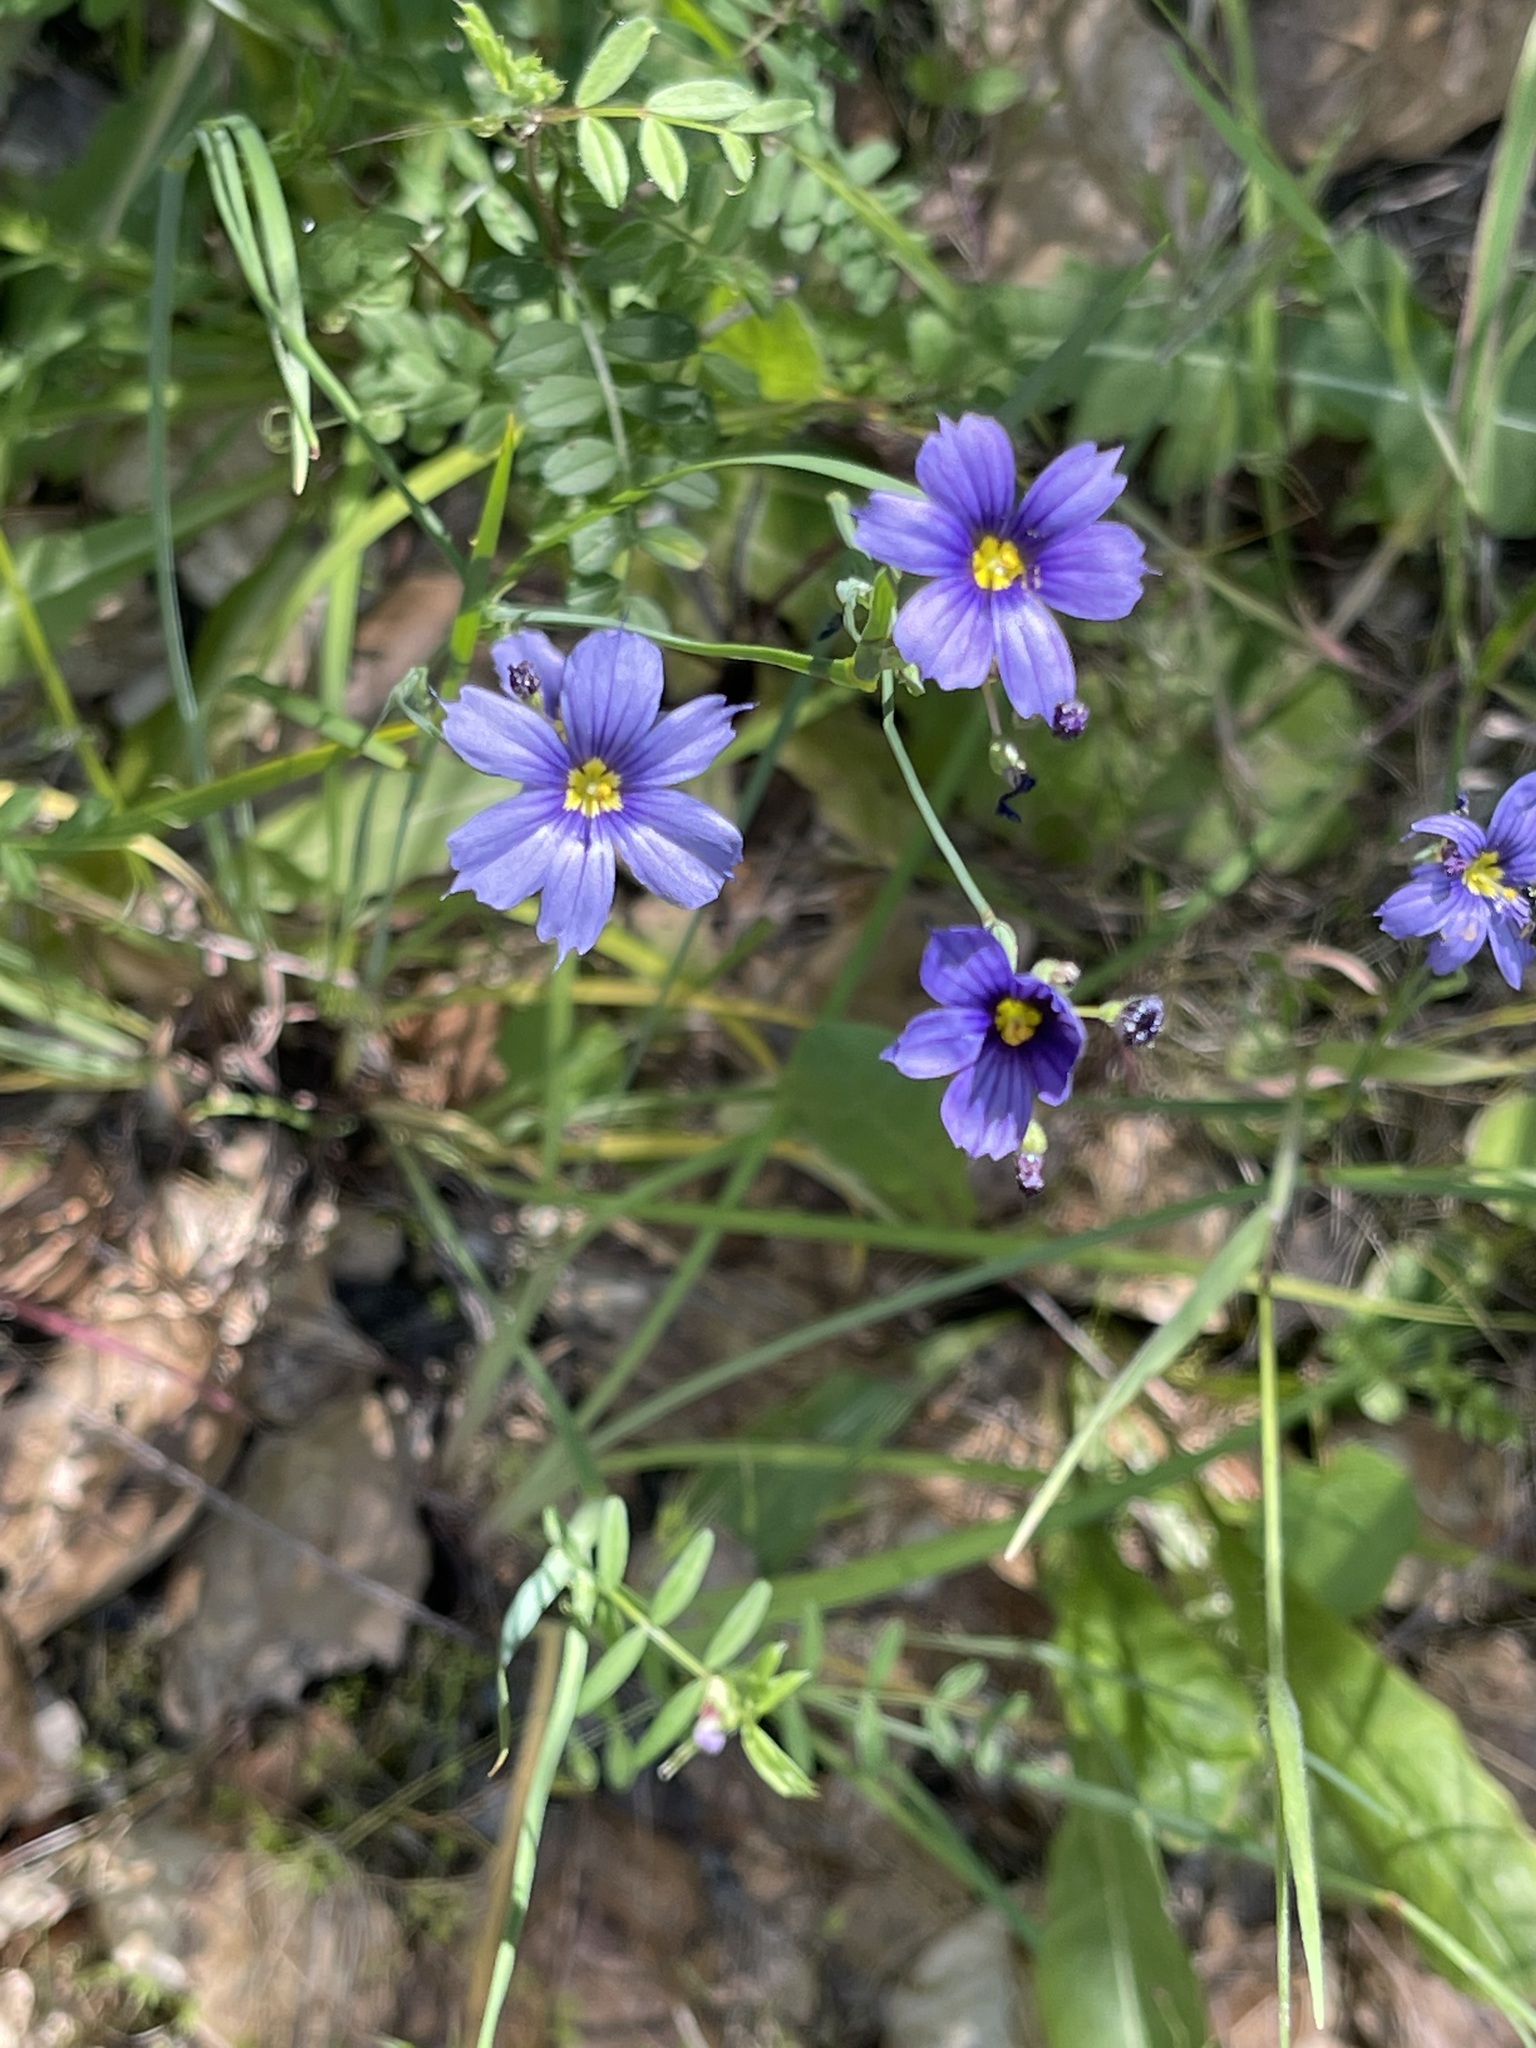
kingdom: Plantae
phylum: Tracheophyta
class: Liliopsida
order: Asparagales
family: Iridaceae
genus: Sisyrinchium
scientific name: Sisyrinchium bellum
